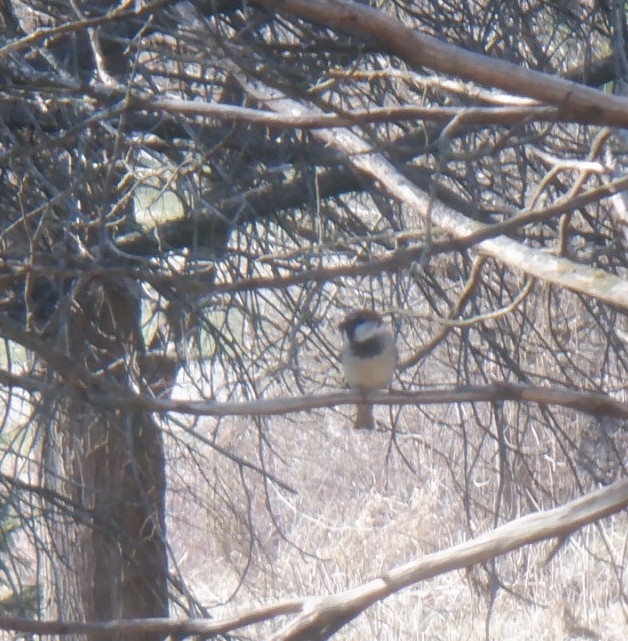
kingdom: Animalia
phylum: Chordata
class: Aves
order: Passeriformes
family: Passeridae
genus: Passer
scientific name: Passer domesticus
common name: House sparrow
